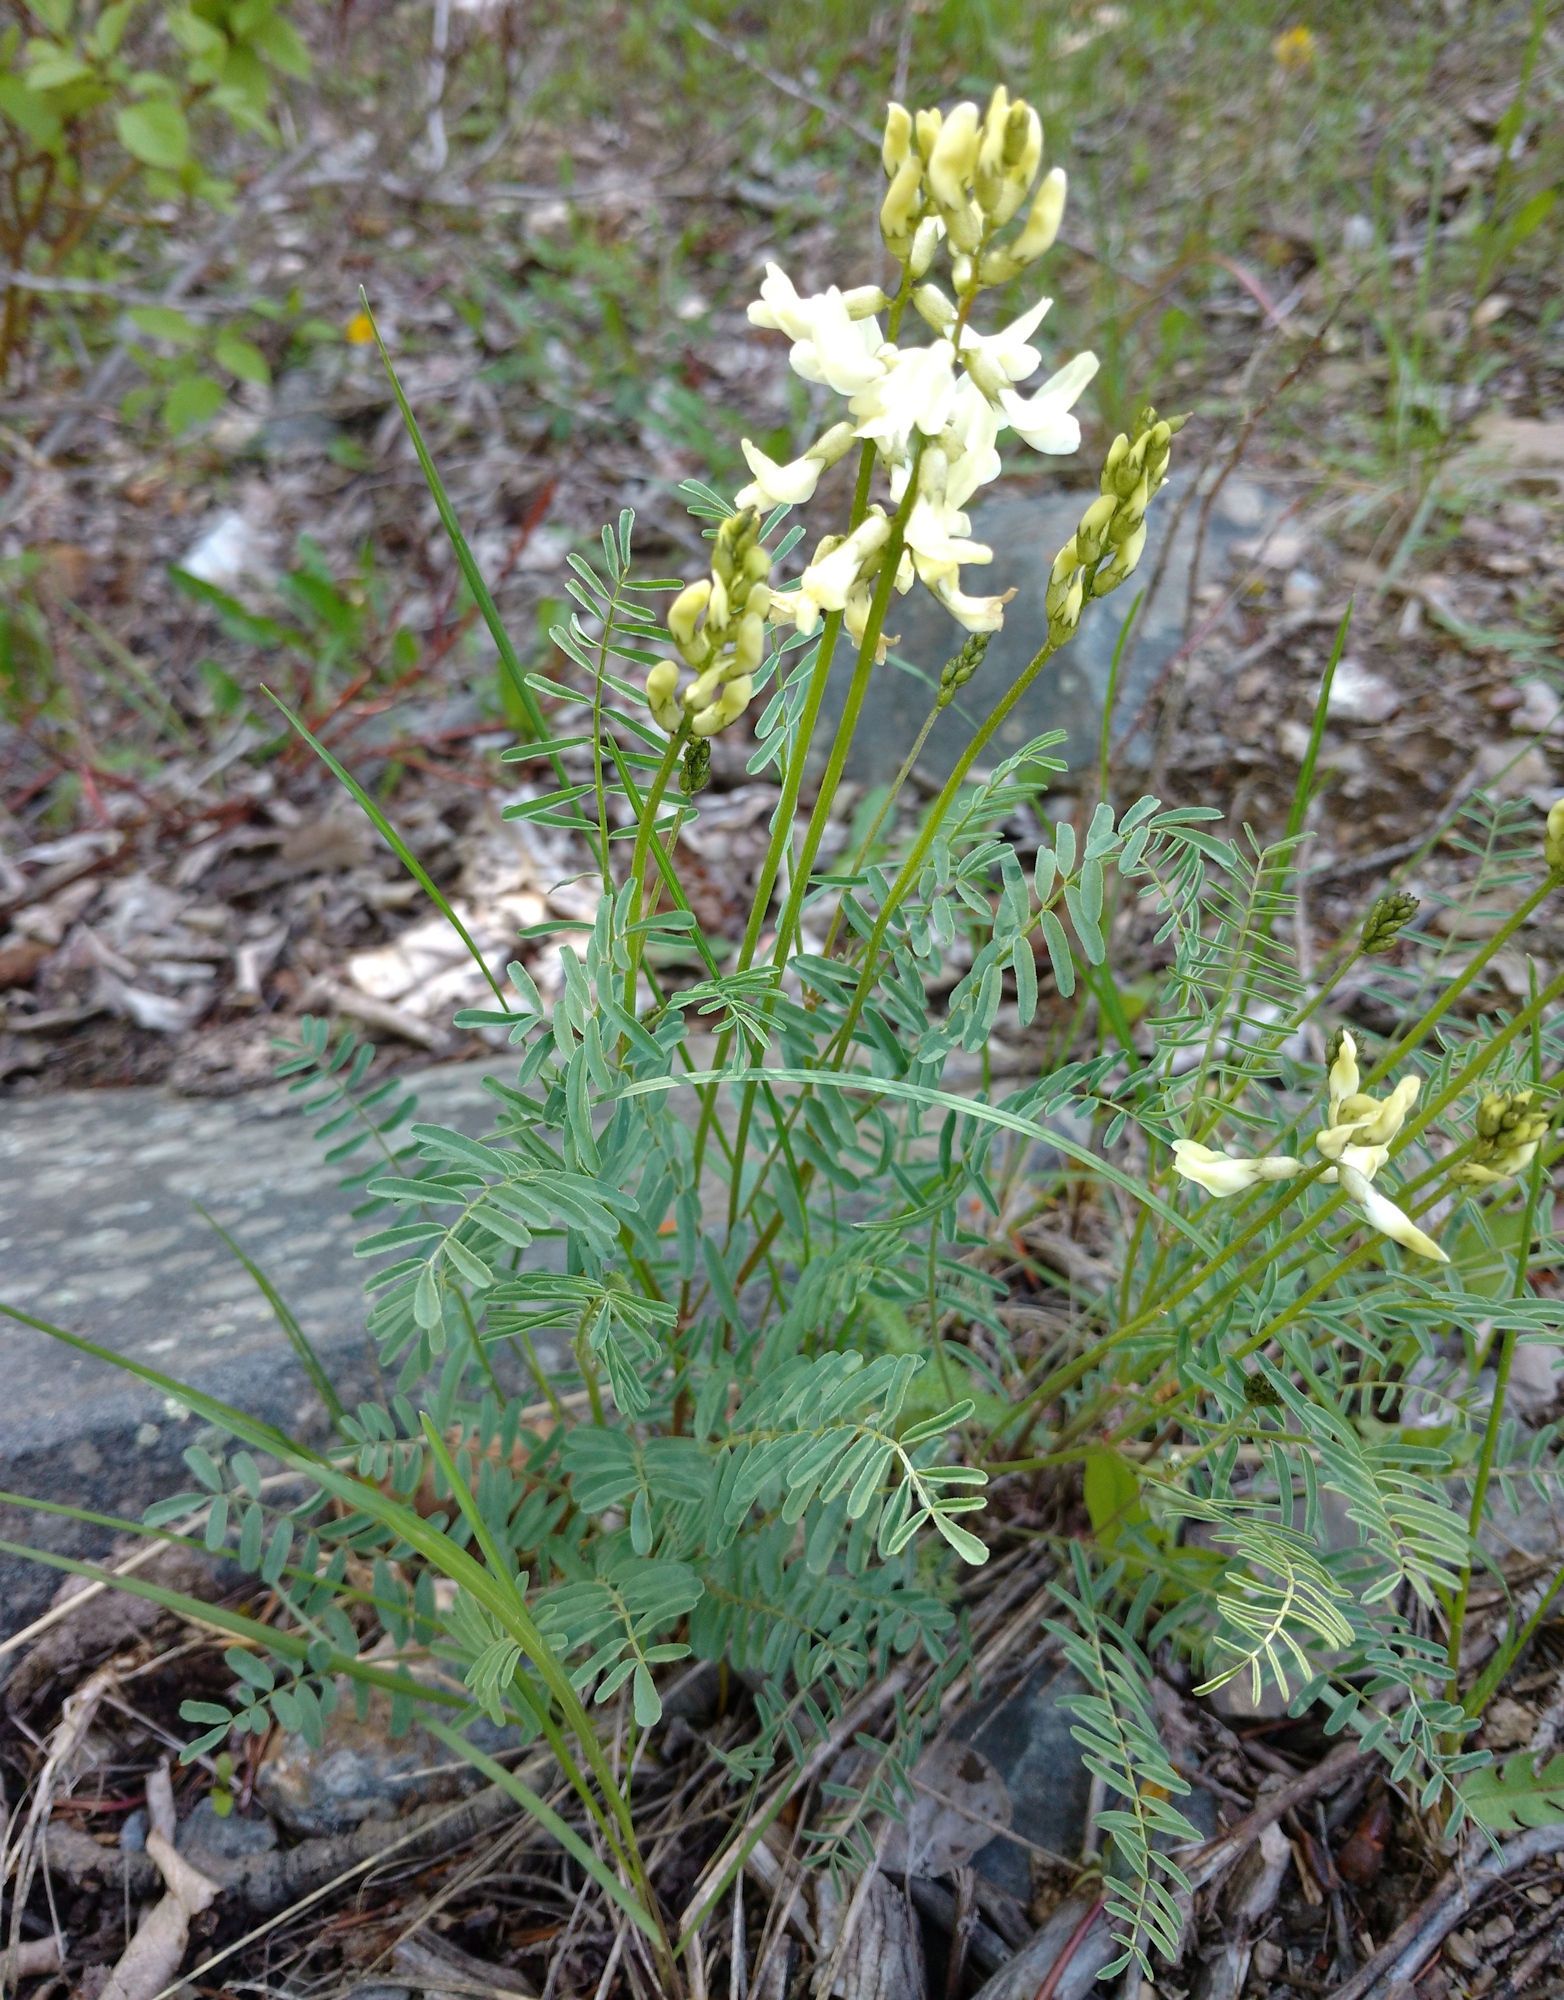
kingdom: Plantae
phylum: Tracheophyta
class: Magnoliopsida
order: Fabales
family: Fabaceae
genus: Astragalus
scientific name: Astragalus atropubescens
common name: Kelsey milk-vetch
